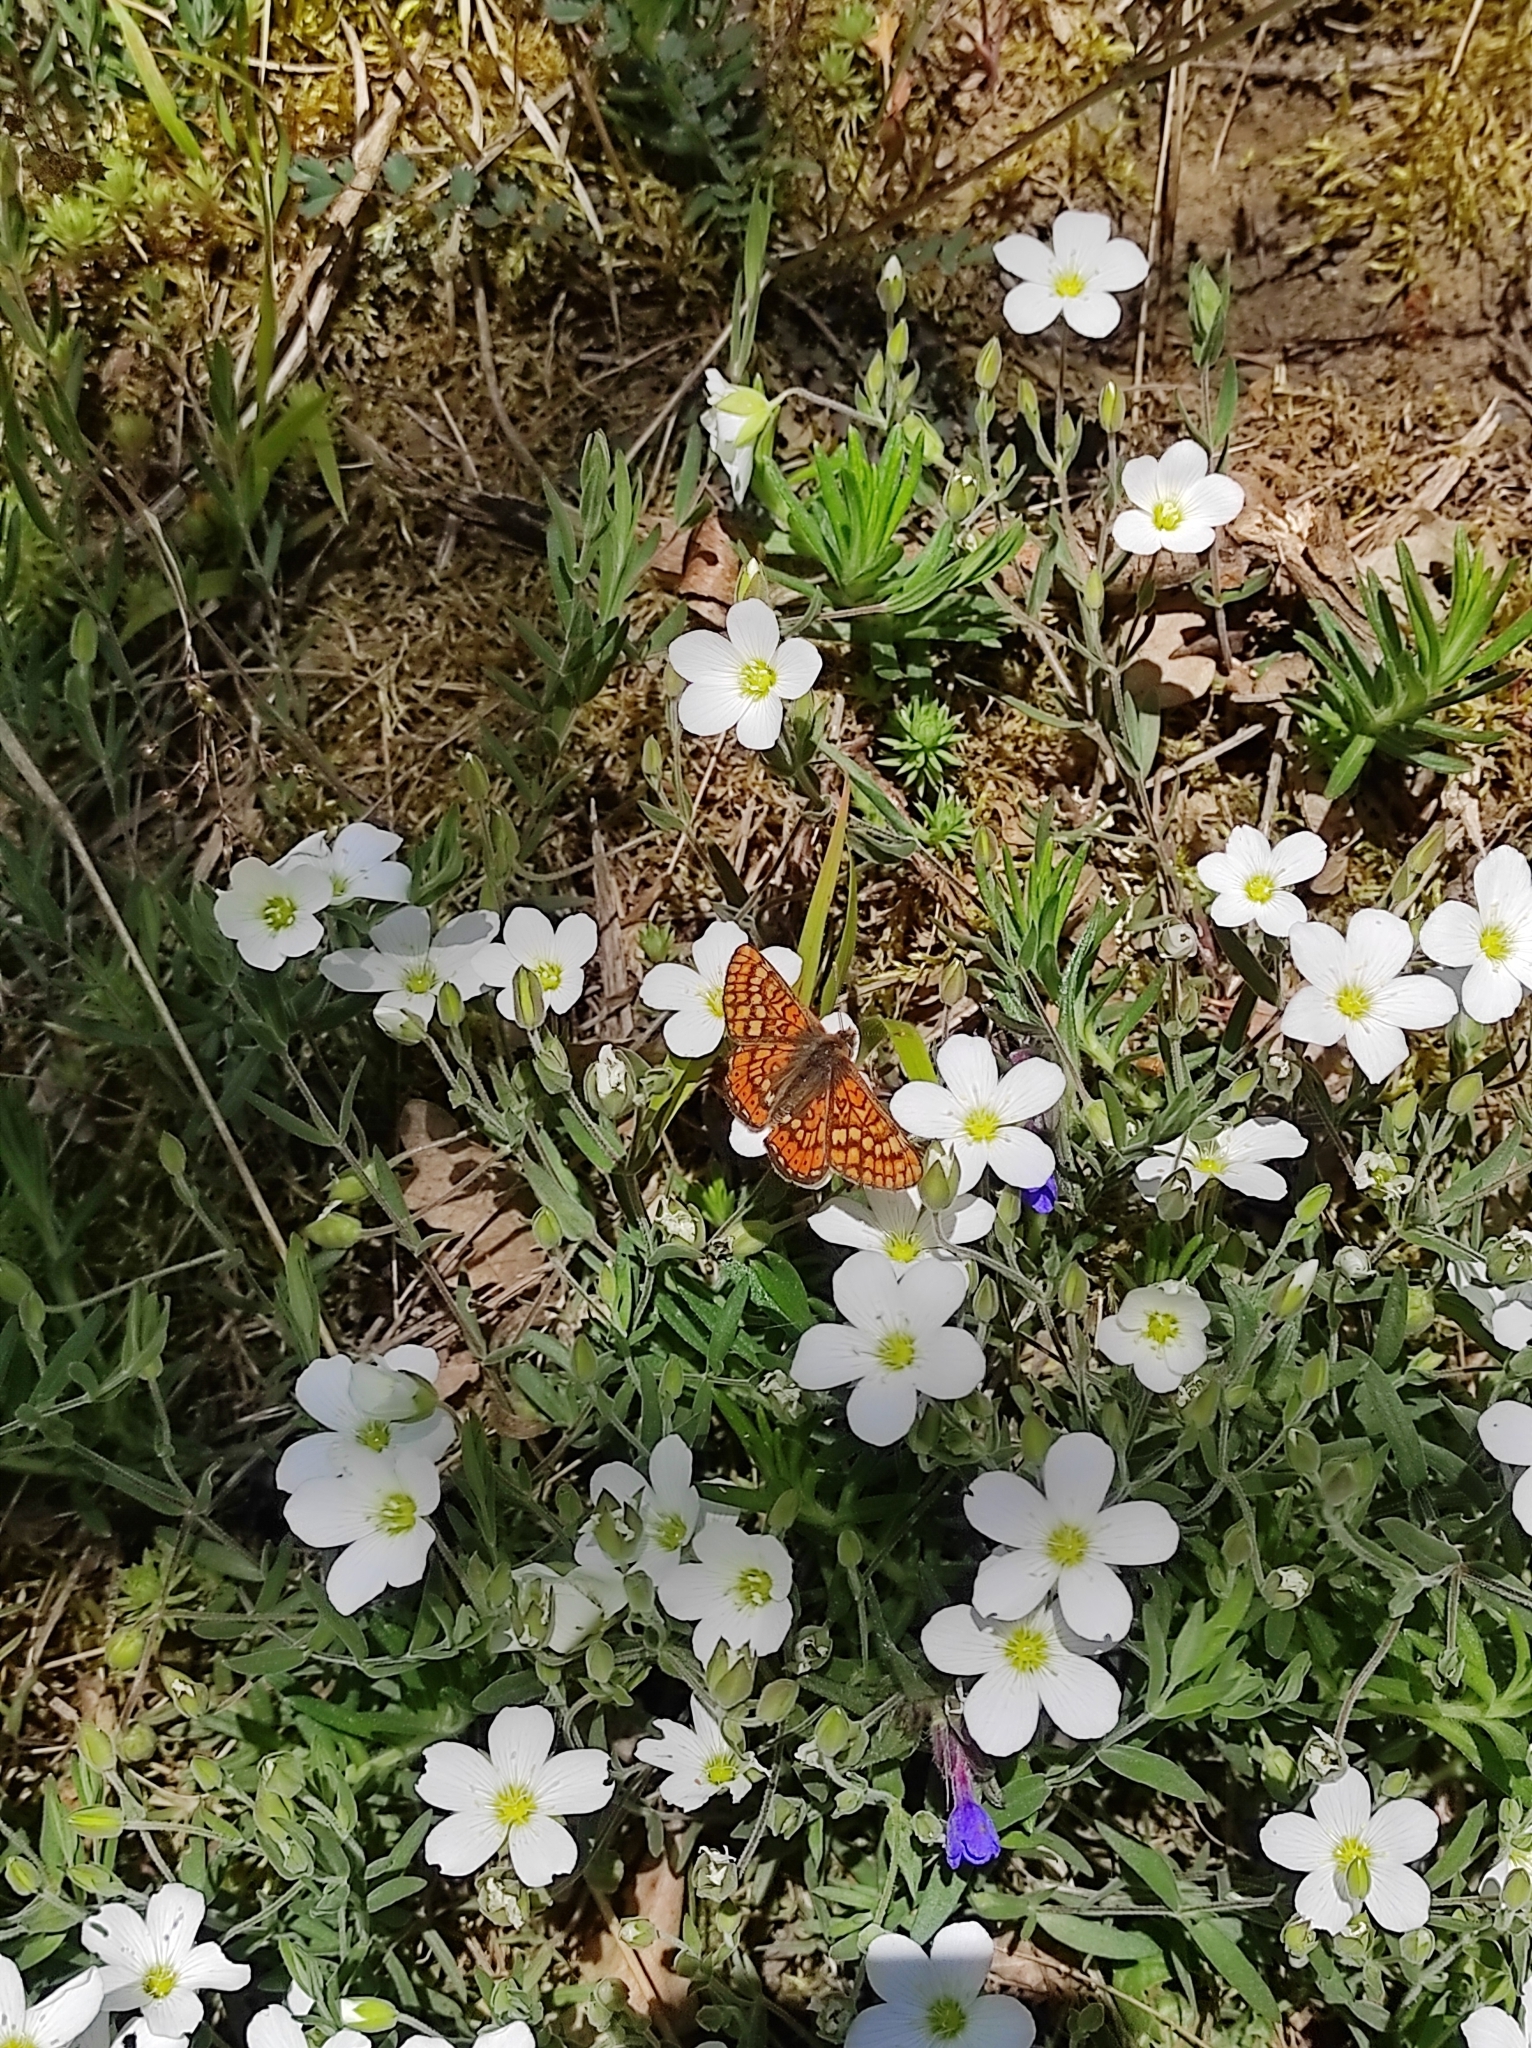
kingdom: Animalia
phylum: Arthropoda
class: Insecta
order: Lepidoptera
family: Nymphalidae
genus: Euphydryas
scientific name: Euphydryas aurinia
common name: Marsh fritillary
